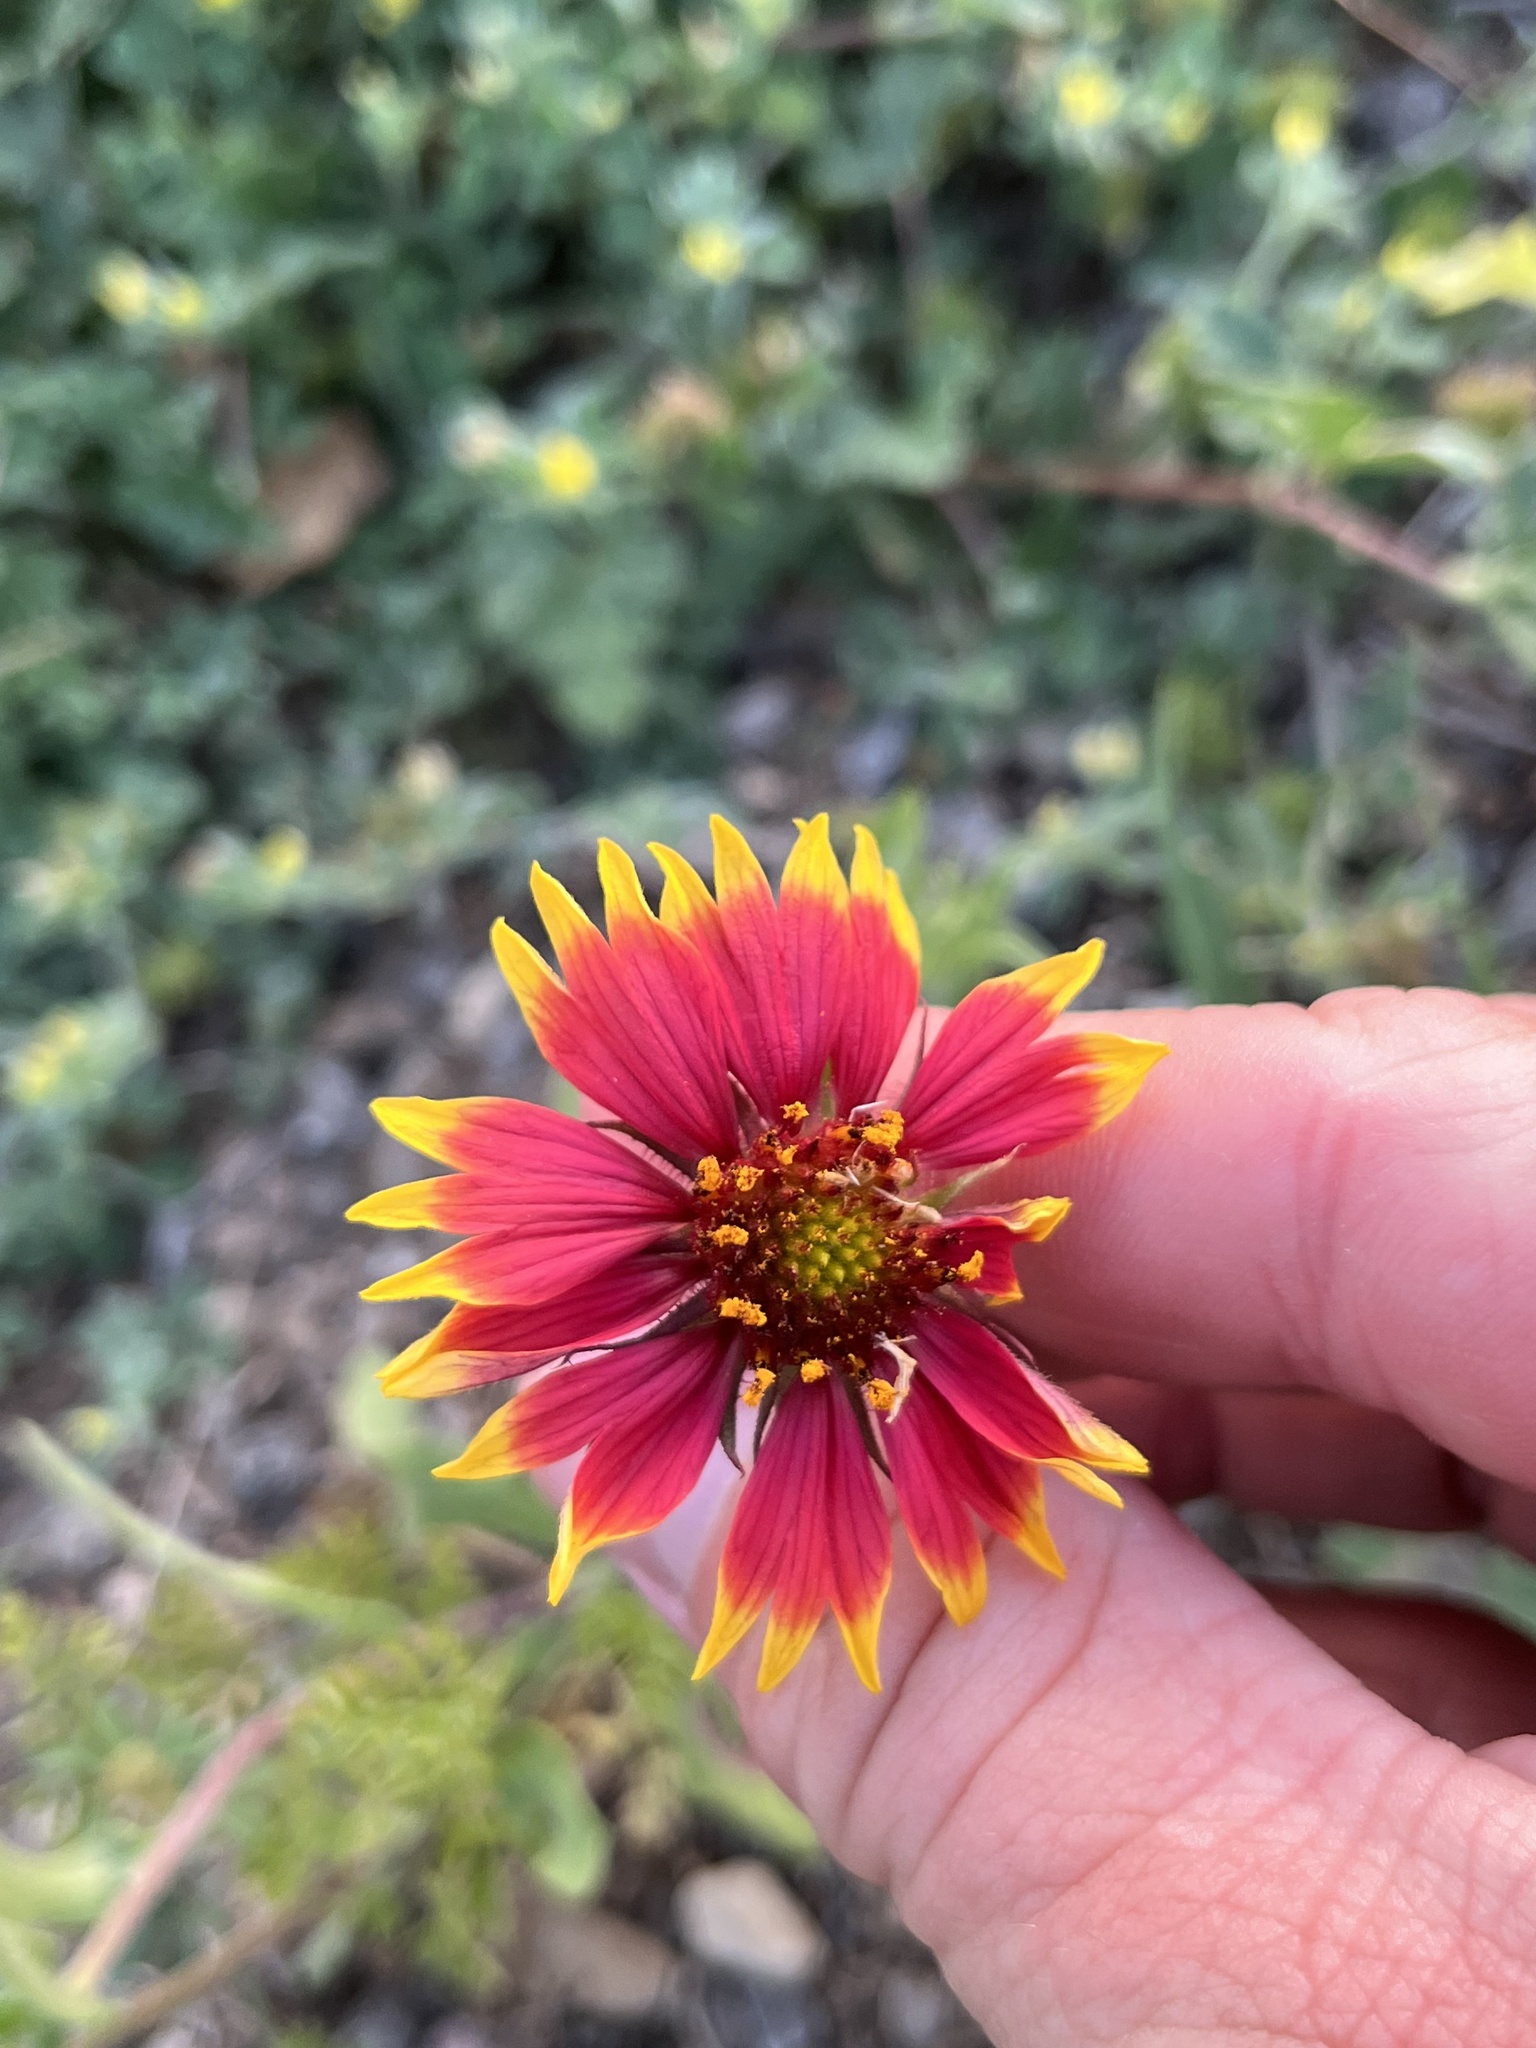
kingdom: Plantae
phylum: Tracheophyta
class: Magnoliopsida
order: Asterales
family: Asteraceae
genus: Gaillardia
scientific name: Gaillardia pulchella
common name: Firewheel
